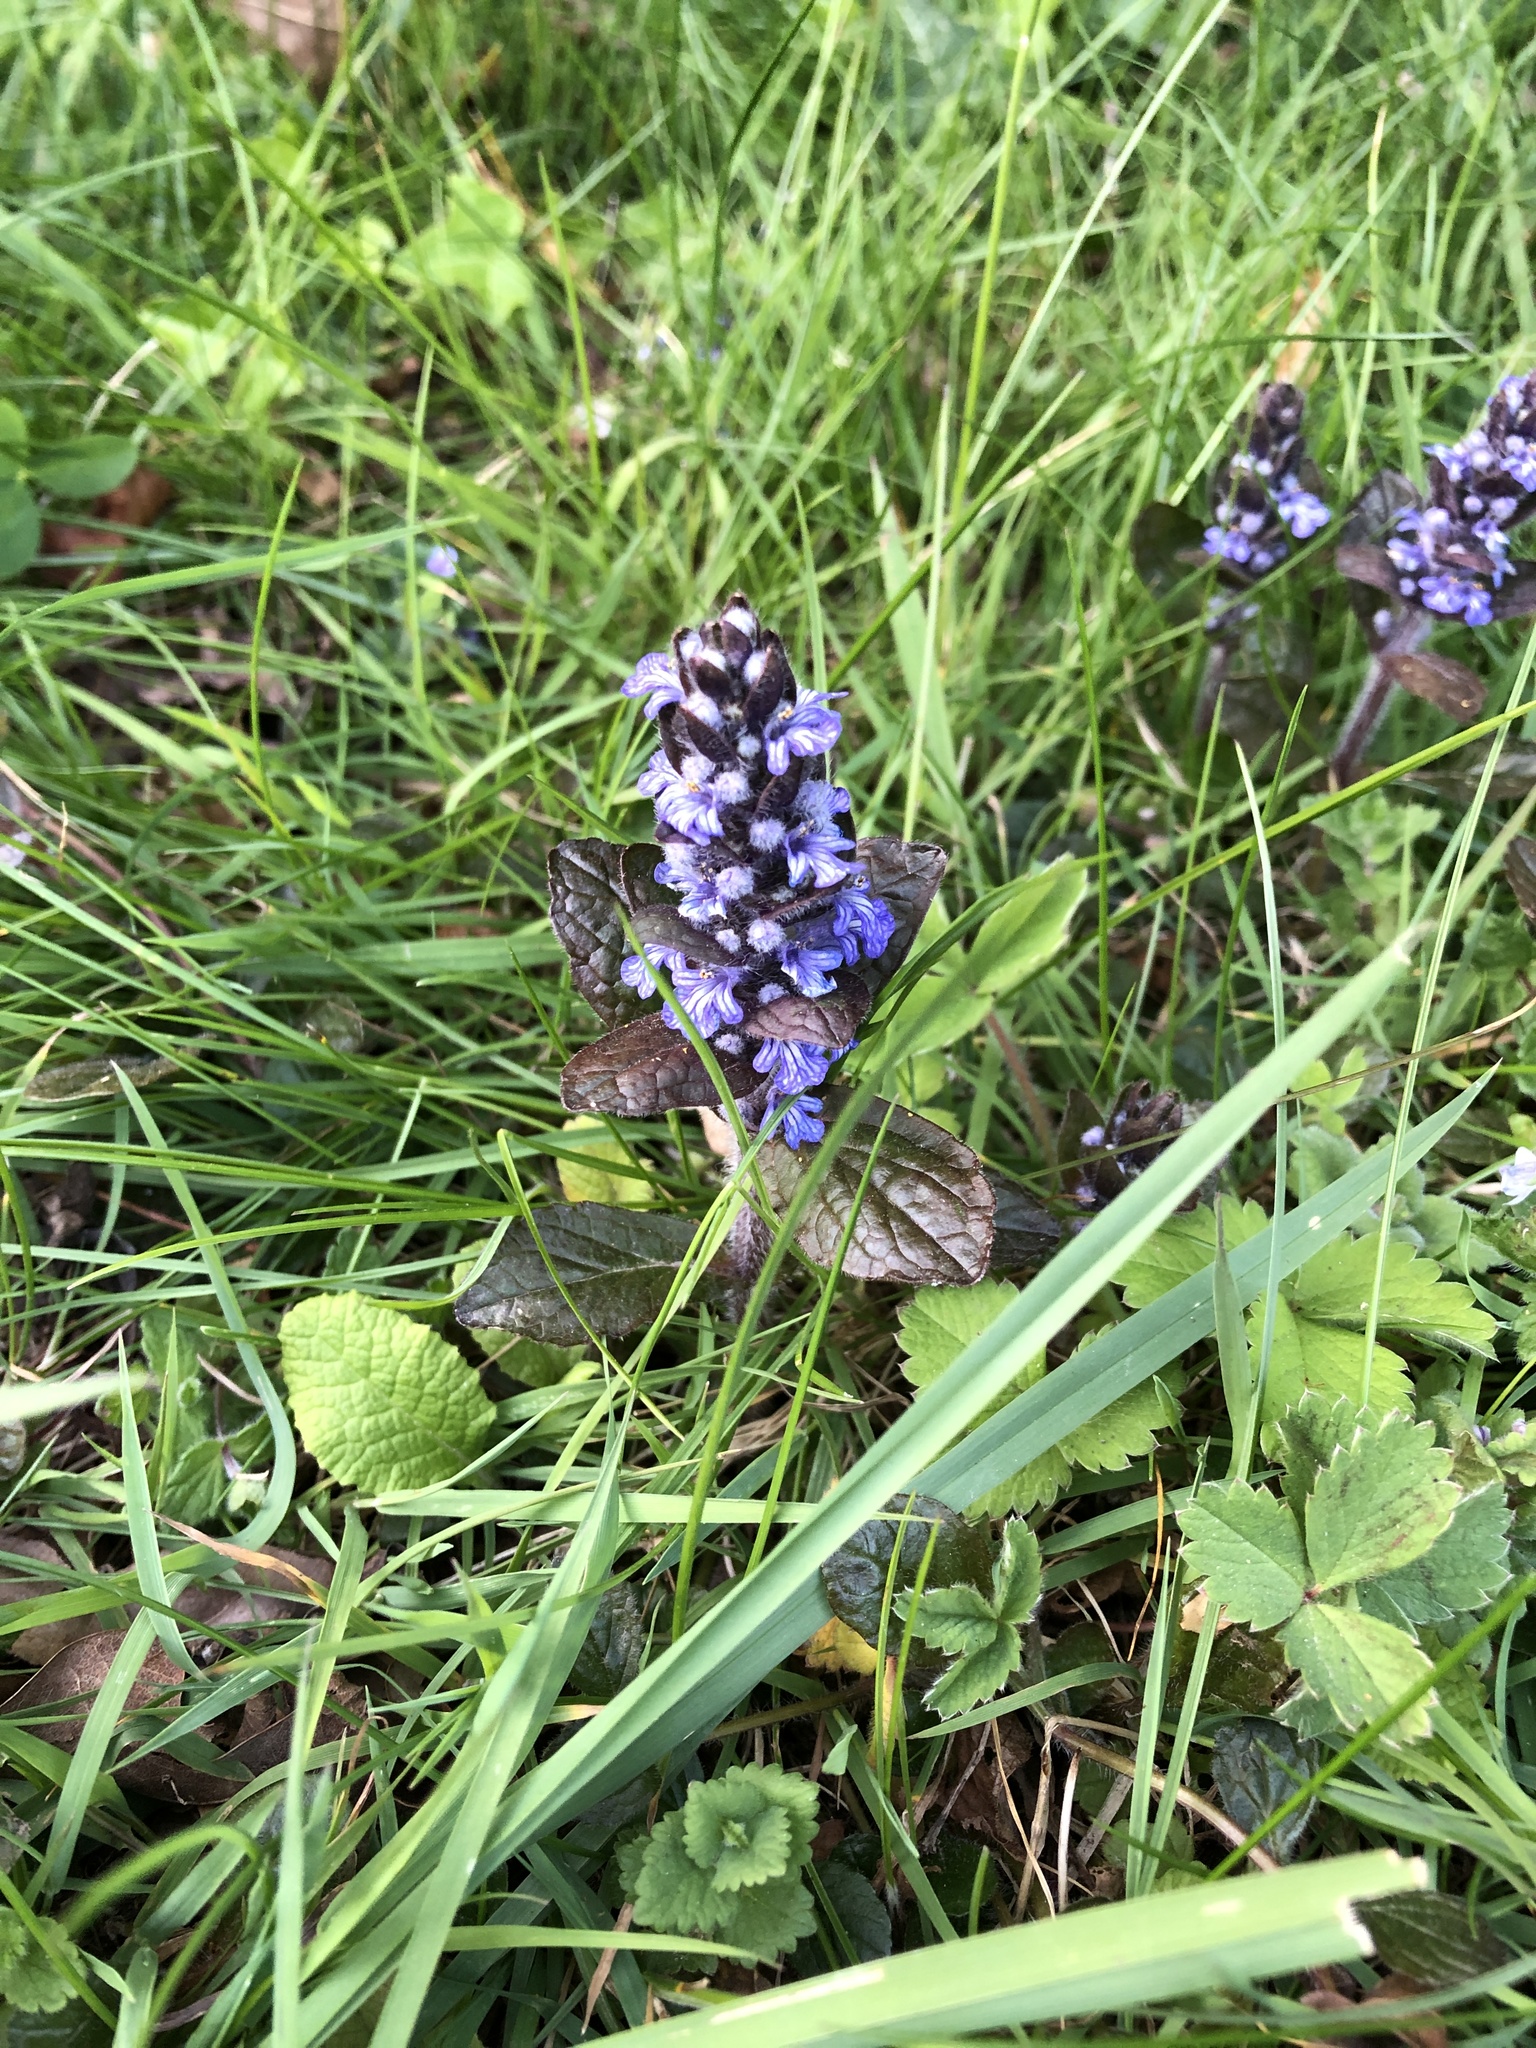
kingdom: Plantae
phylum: Tracheophyta
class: Magnoliopsida
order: Lamiales
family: Lamiaceae
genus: Ajuga
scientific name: Ajuga reptans
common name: Bugle
